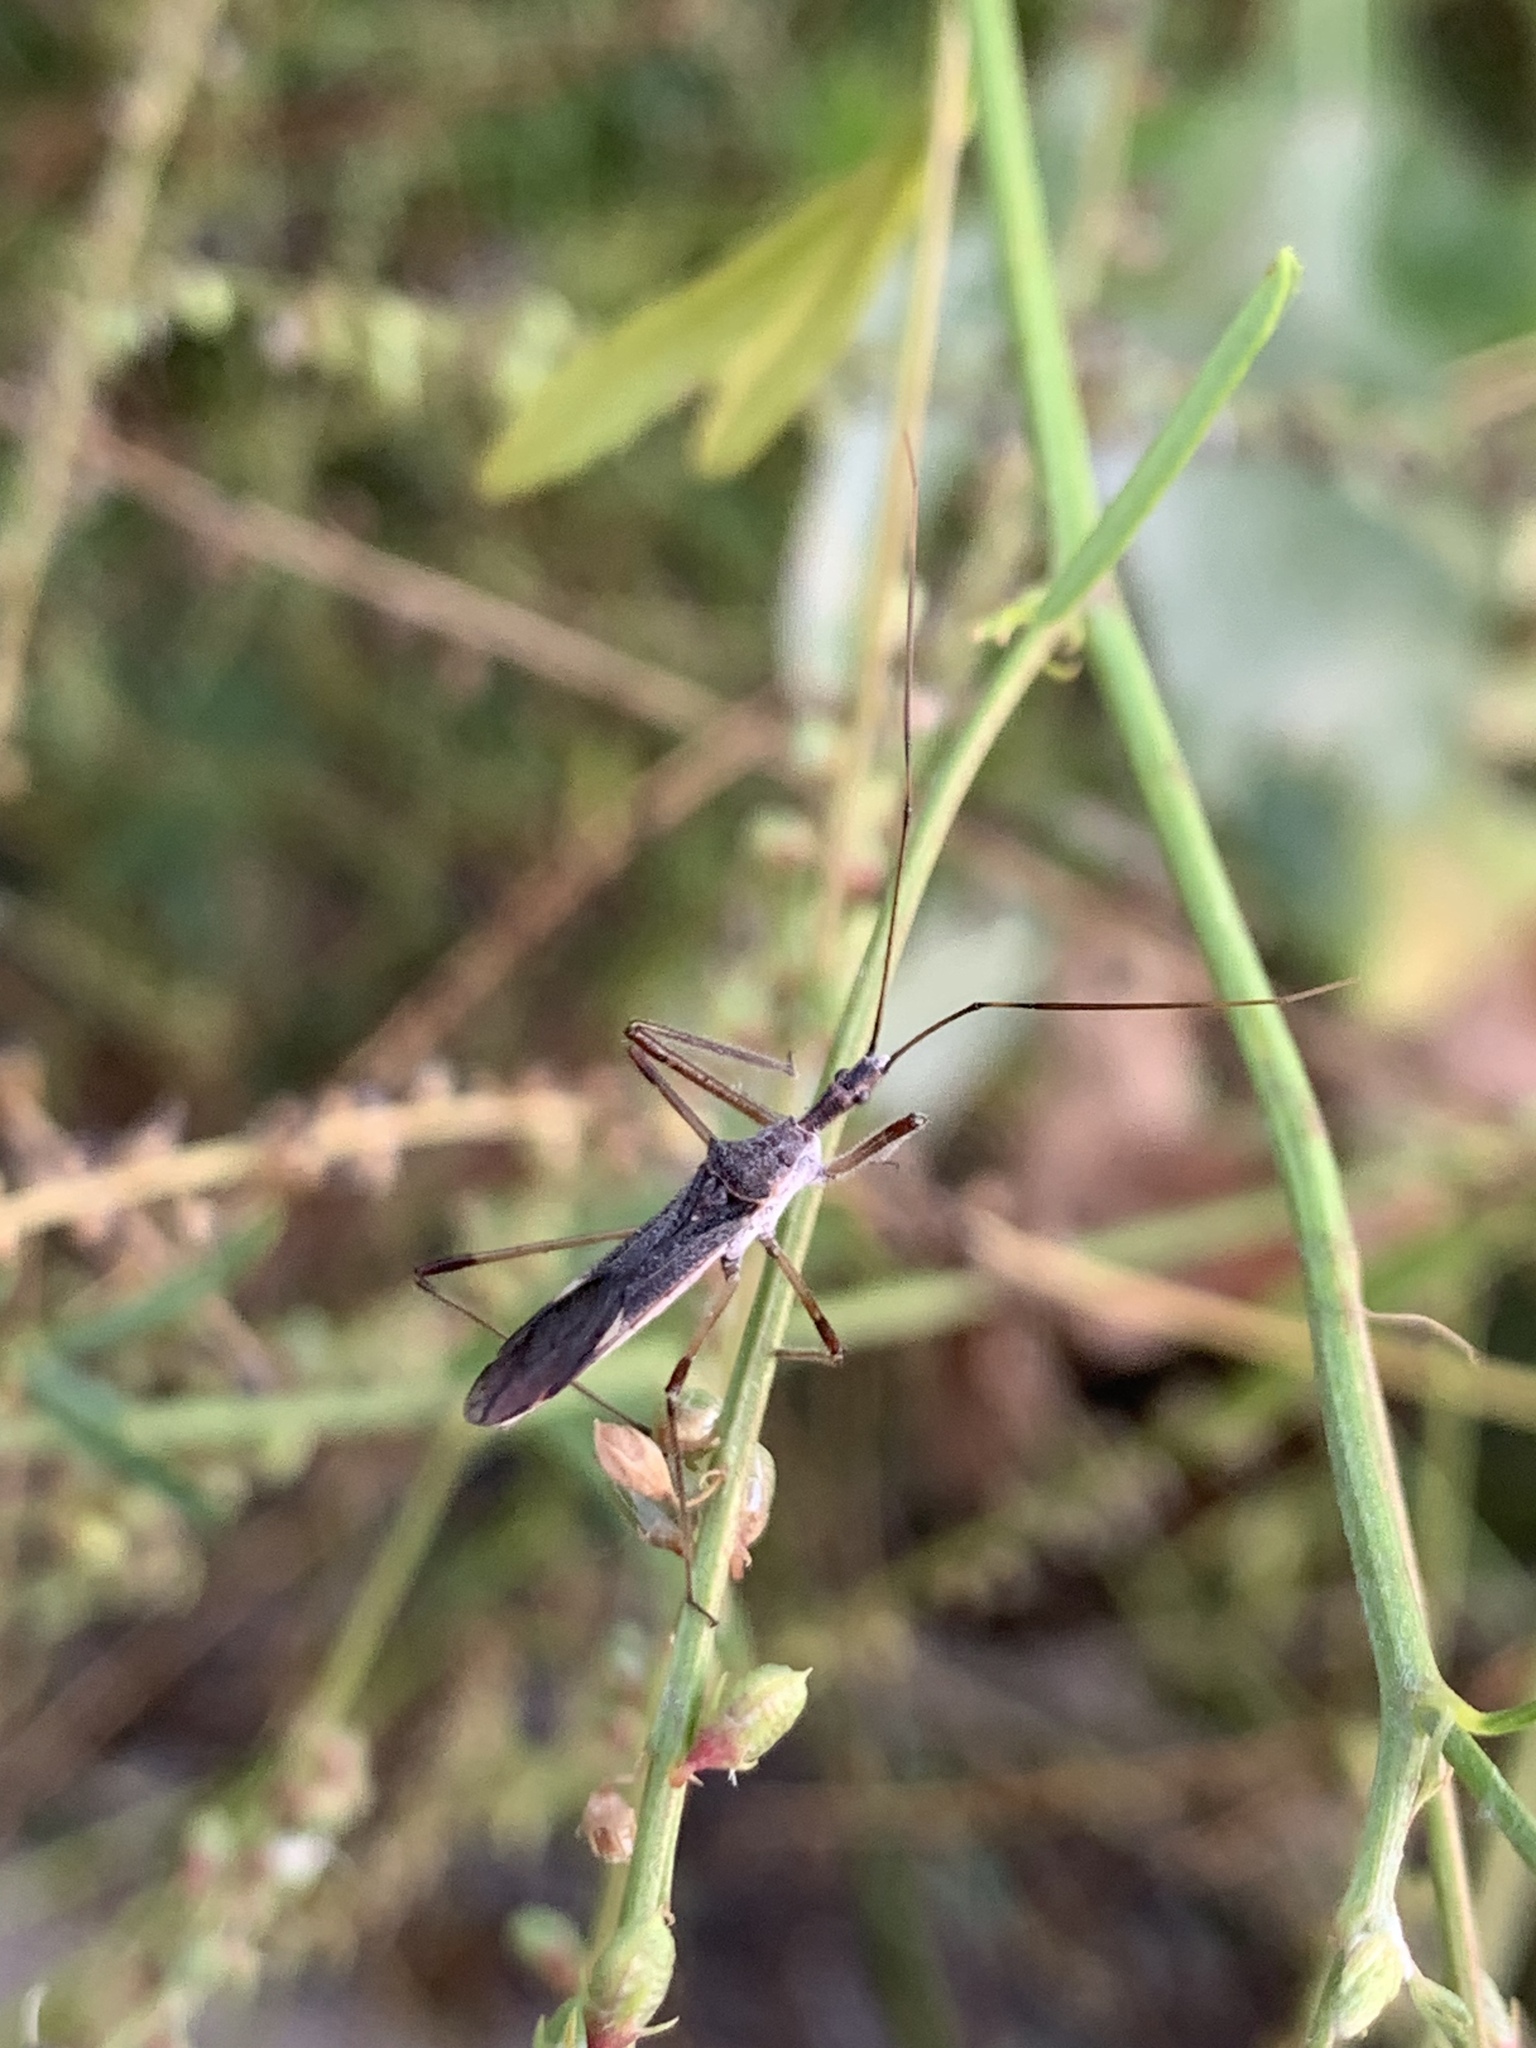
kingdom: Animalia
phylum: Arthropoda
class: Insecta
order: Hemiptera
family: Reduviidae
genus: Zelus
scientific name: Zelus tetracanthus
